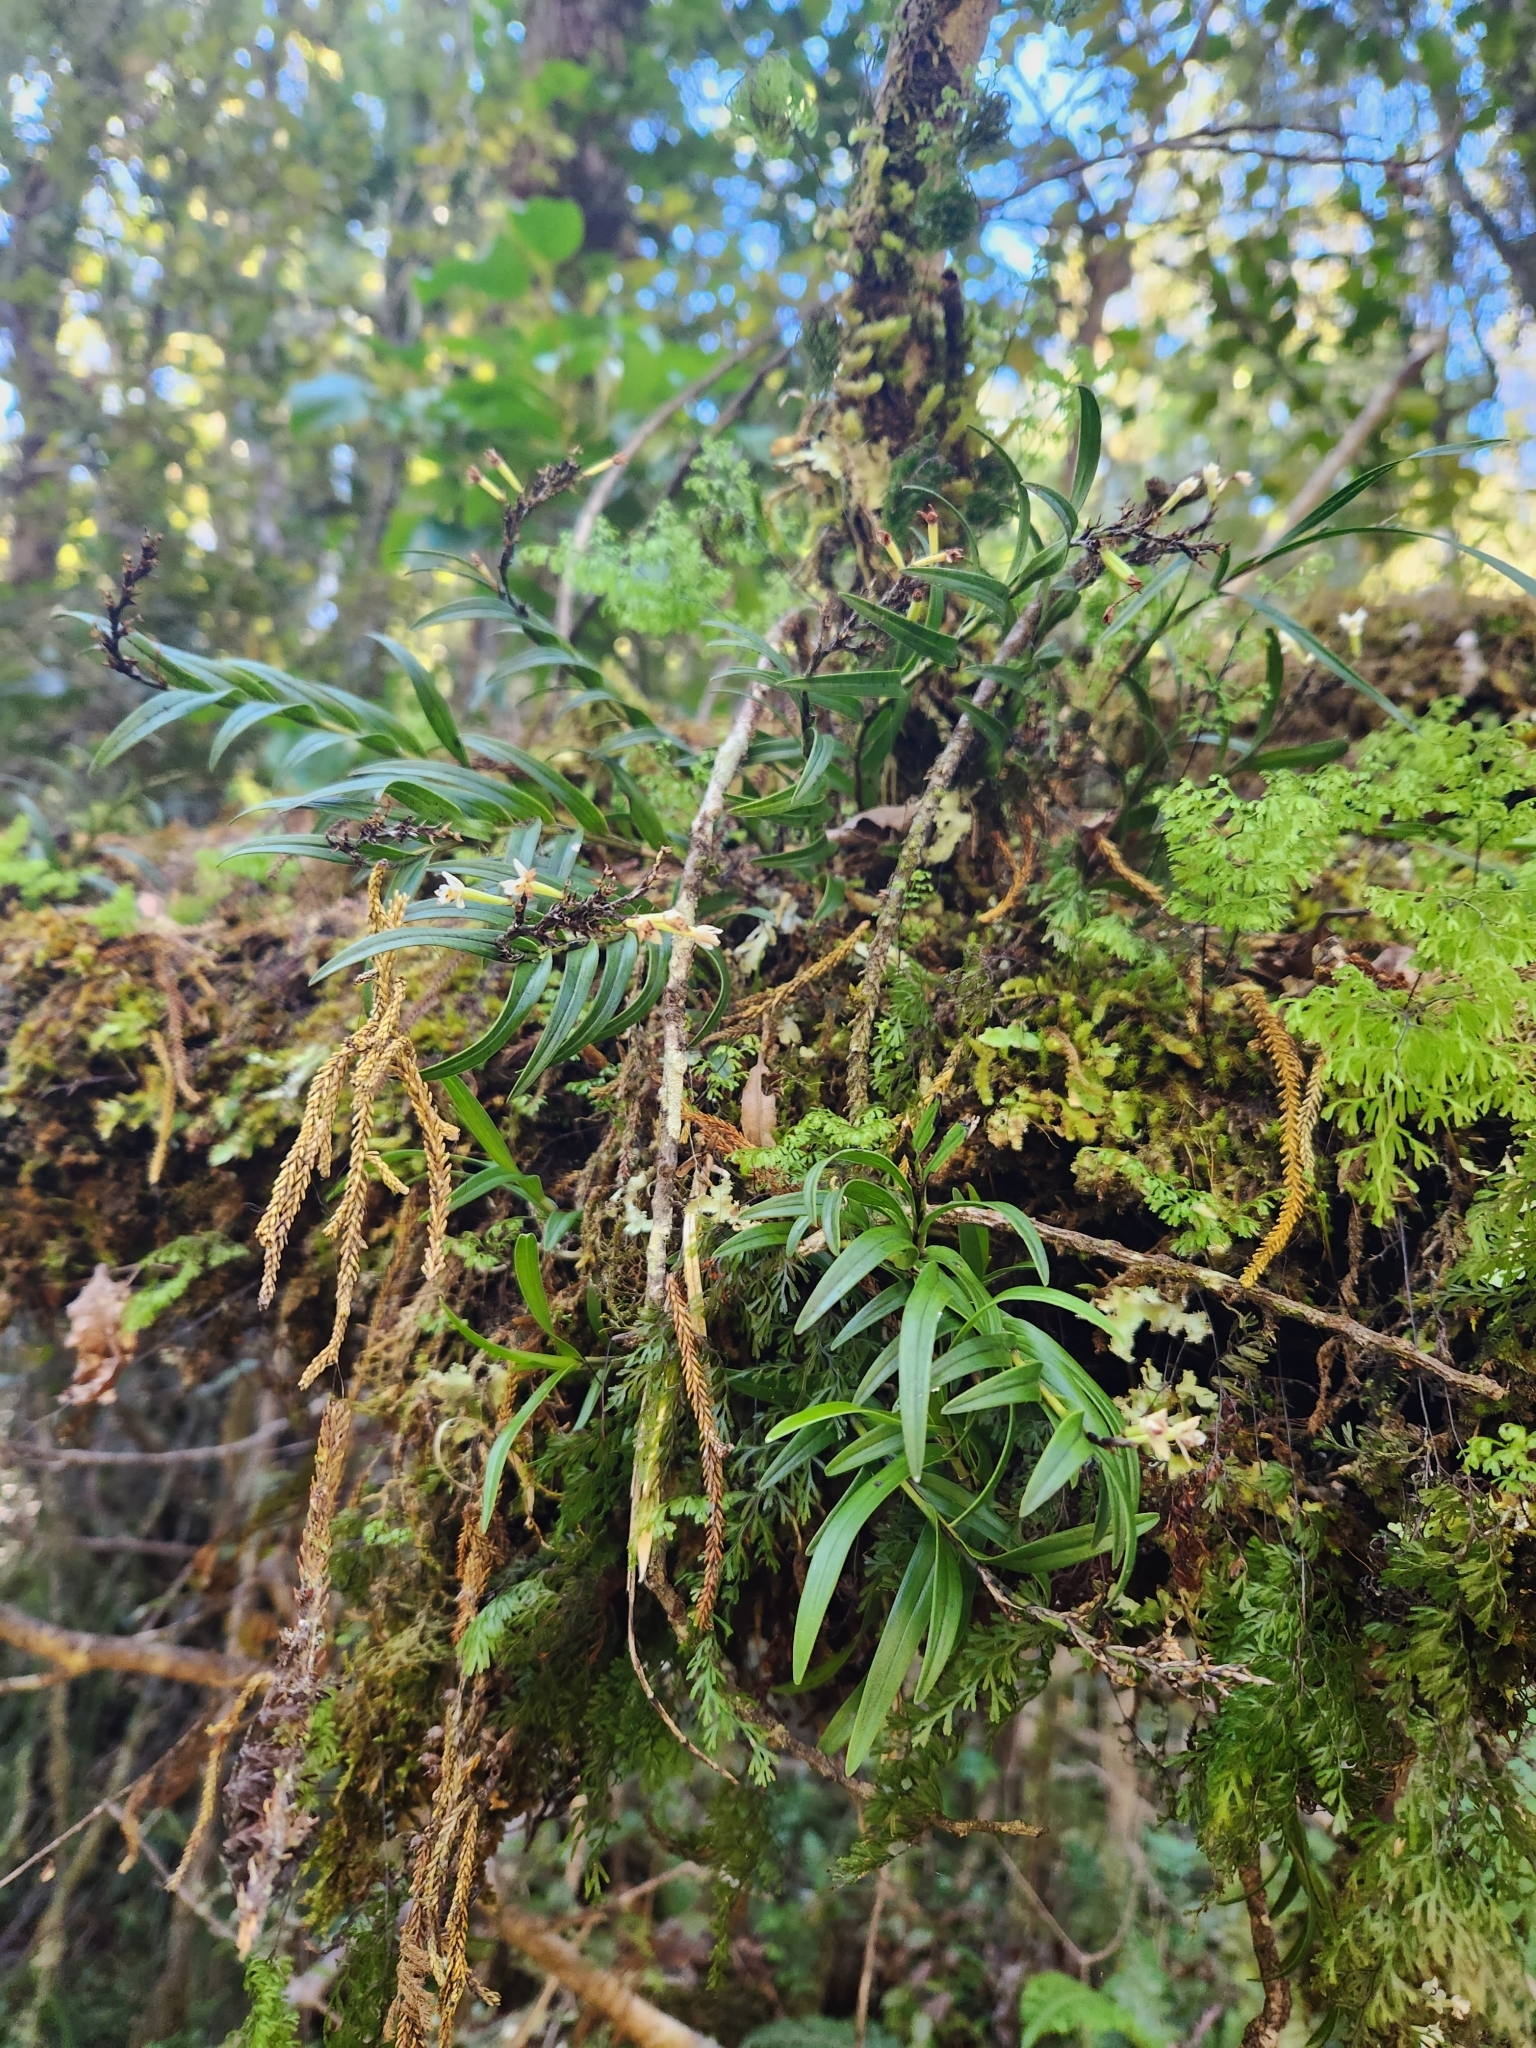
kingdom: Plantae
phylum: Tracheophyta
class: Liliopsida
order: Asparagales
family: Orchidaceae
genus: Earina
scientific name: Earina autumnalis
